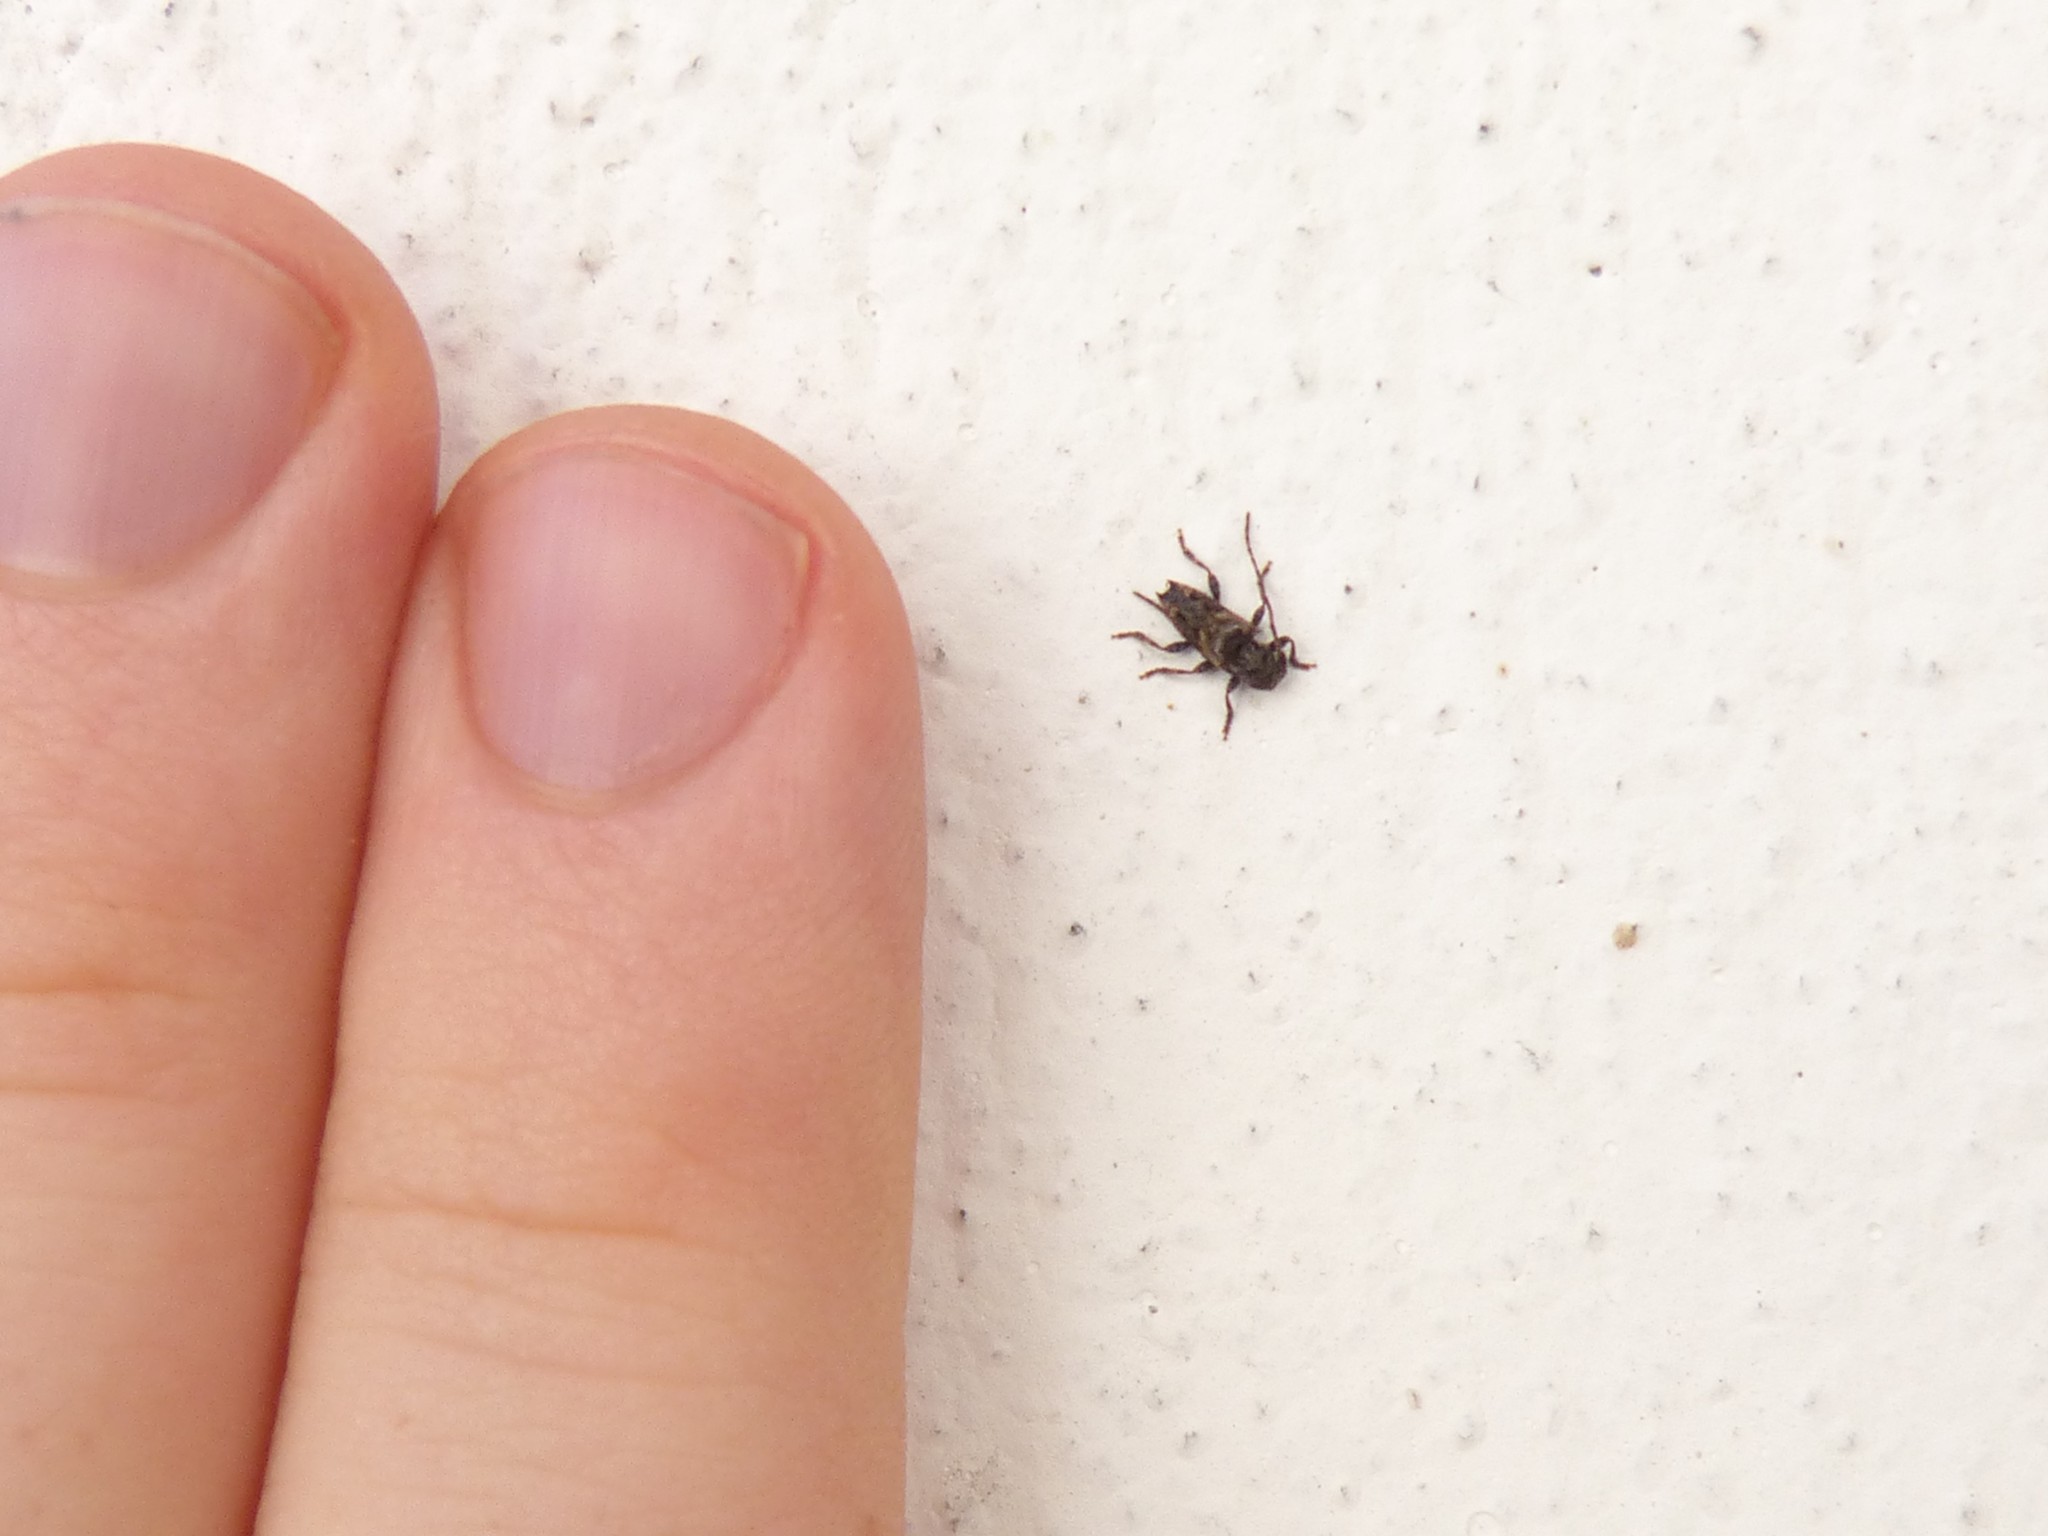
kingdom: Animalia
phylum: Arthropoda
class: Insecta
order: Coleoptera
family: Cerambycidae
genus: Pogonocherus
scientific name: Pogonocherus hispidus
